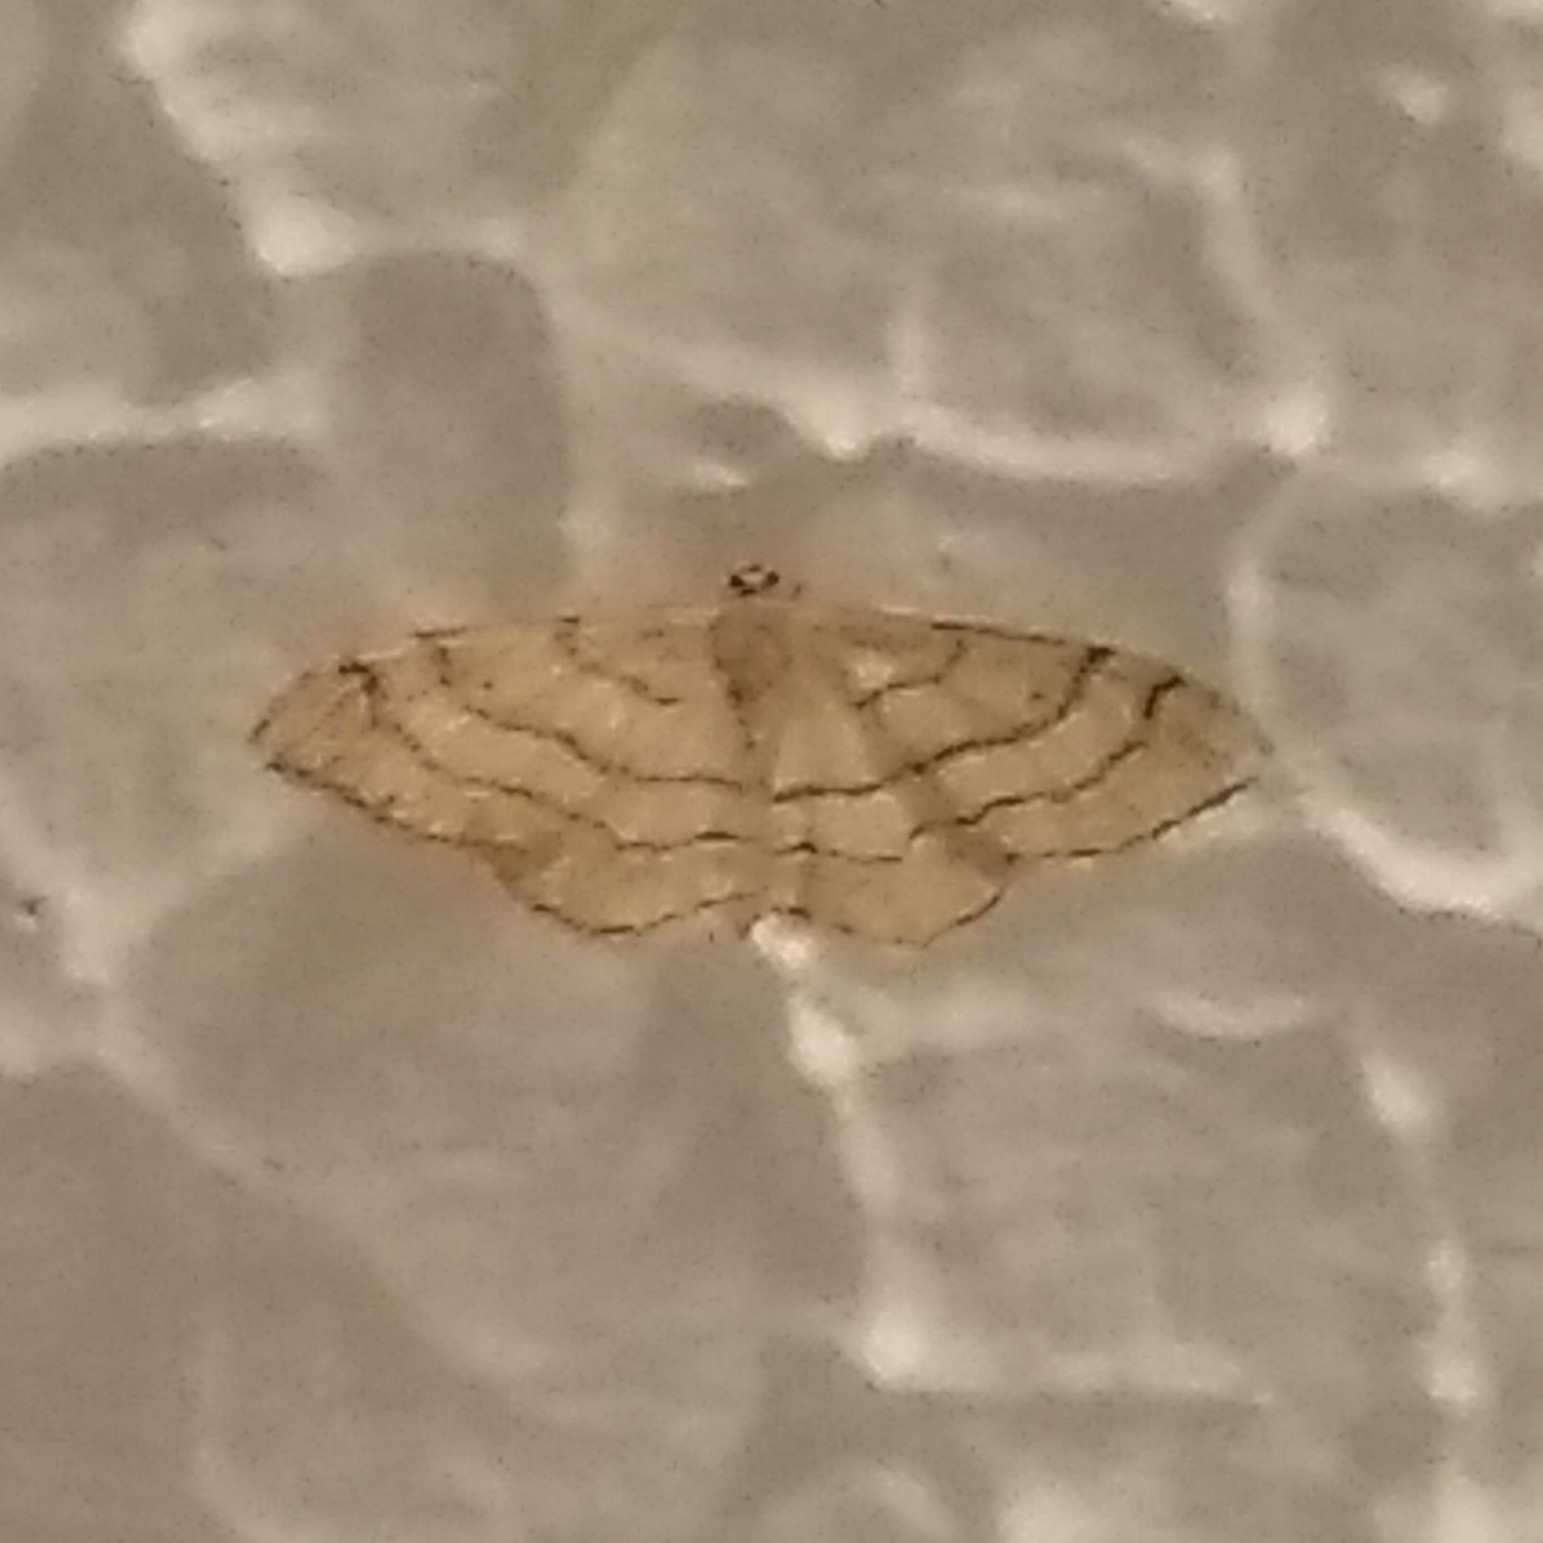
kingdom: Animalia
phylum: Arthropoda
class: Insecta
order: Lepidoptera
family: Geometridae
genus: Idaea
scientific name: Idaea aversata
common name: Riband wave
